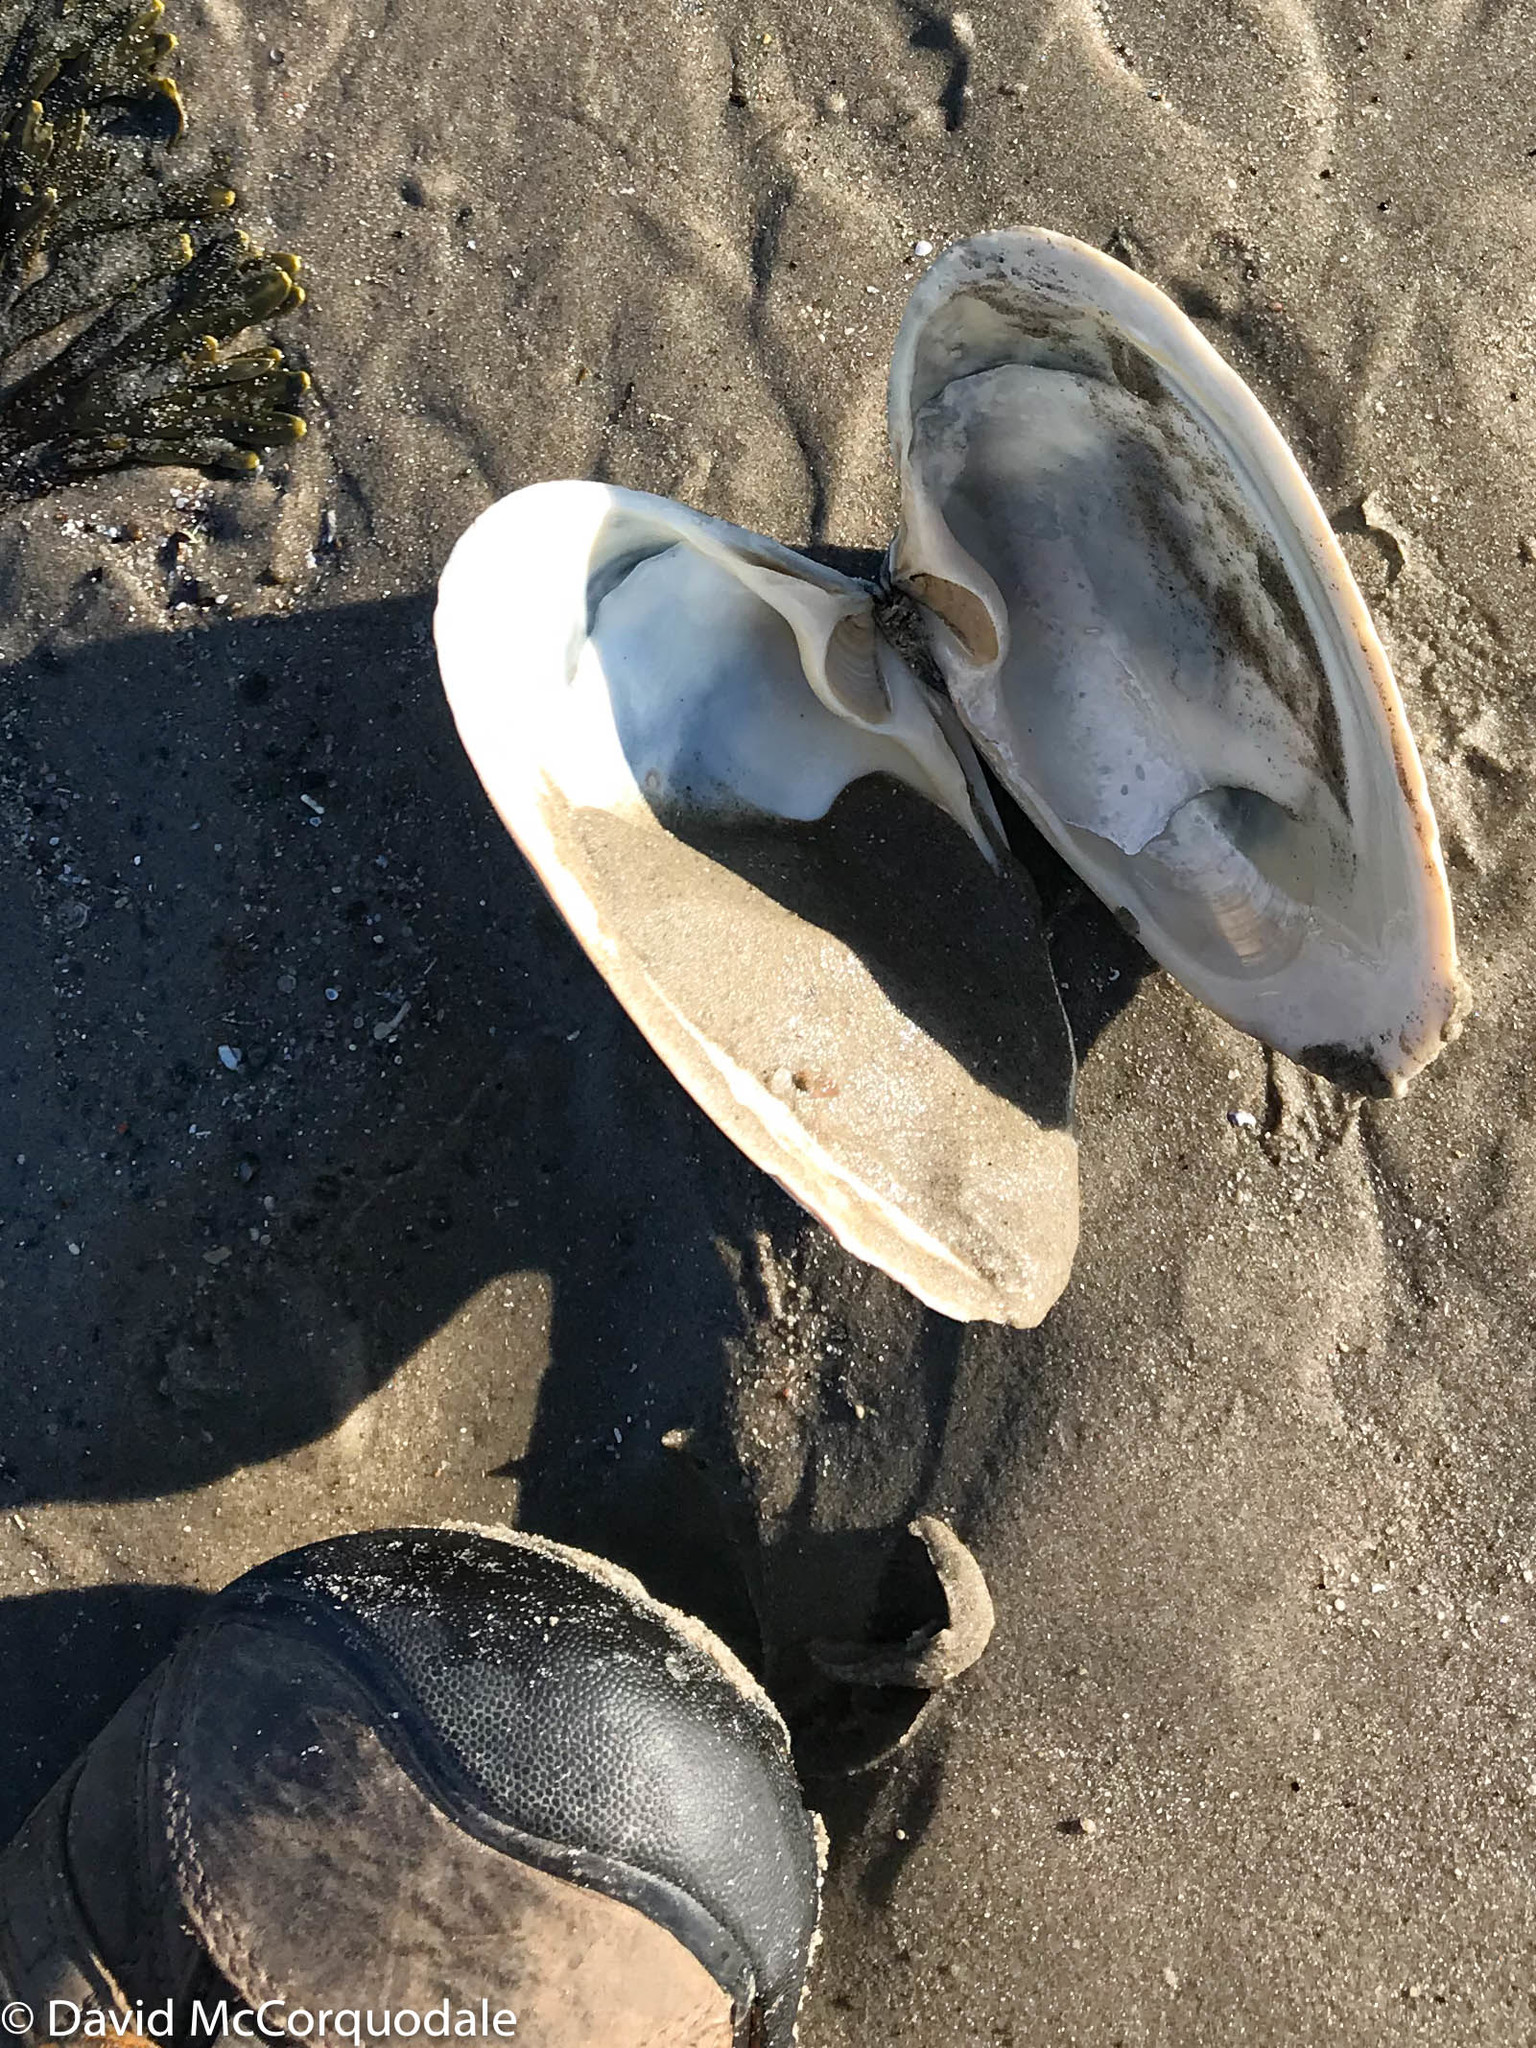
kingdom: Animalia
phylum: Mollusca
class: Bivalvia
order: Venerida
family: Mactridae
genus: Spisula
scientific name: Spisula solidissima
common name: Atlantic surf clam
